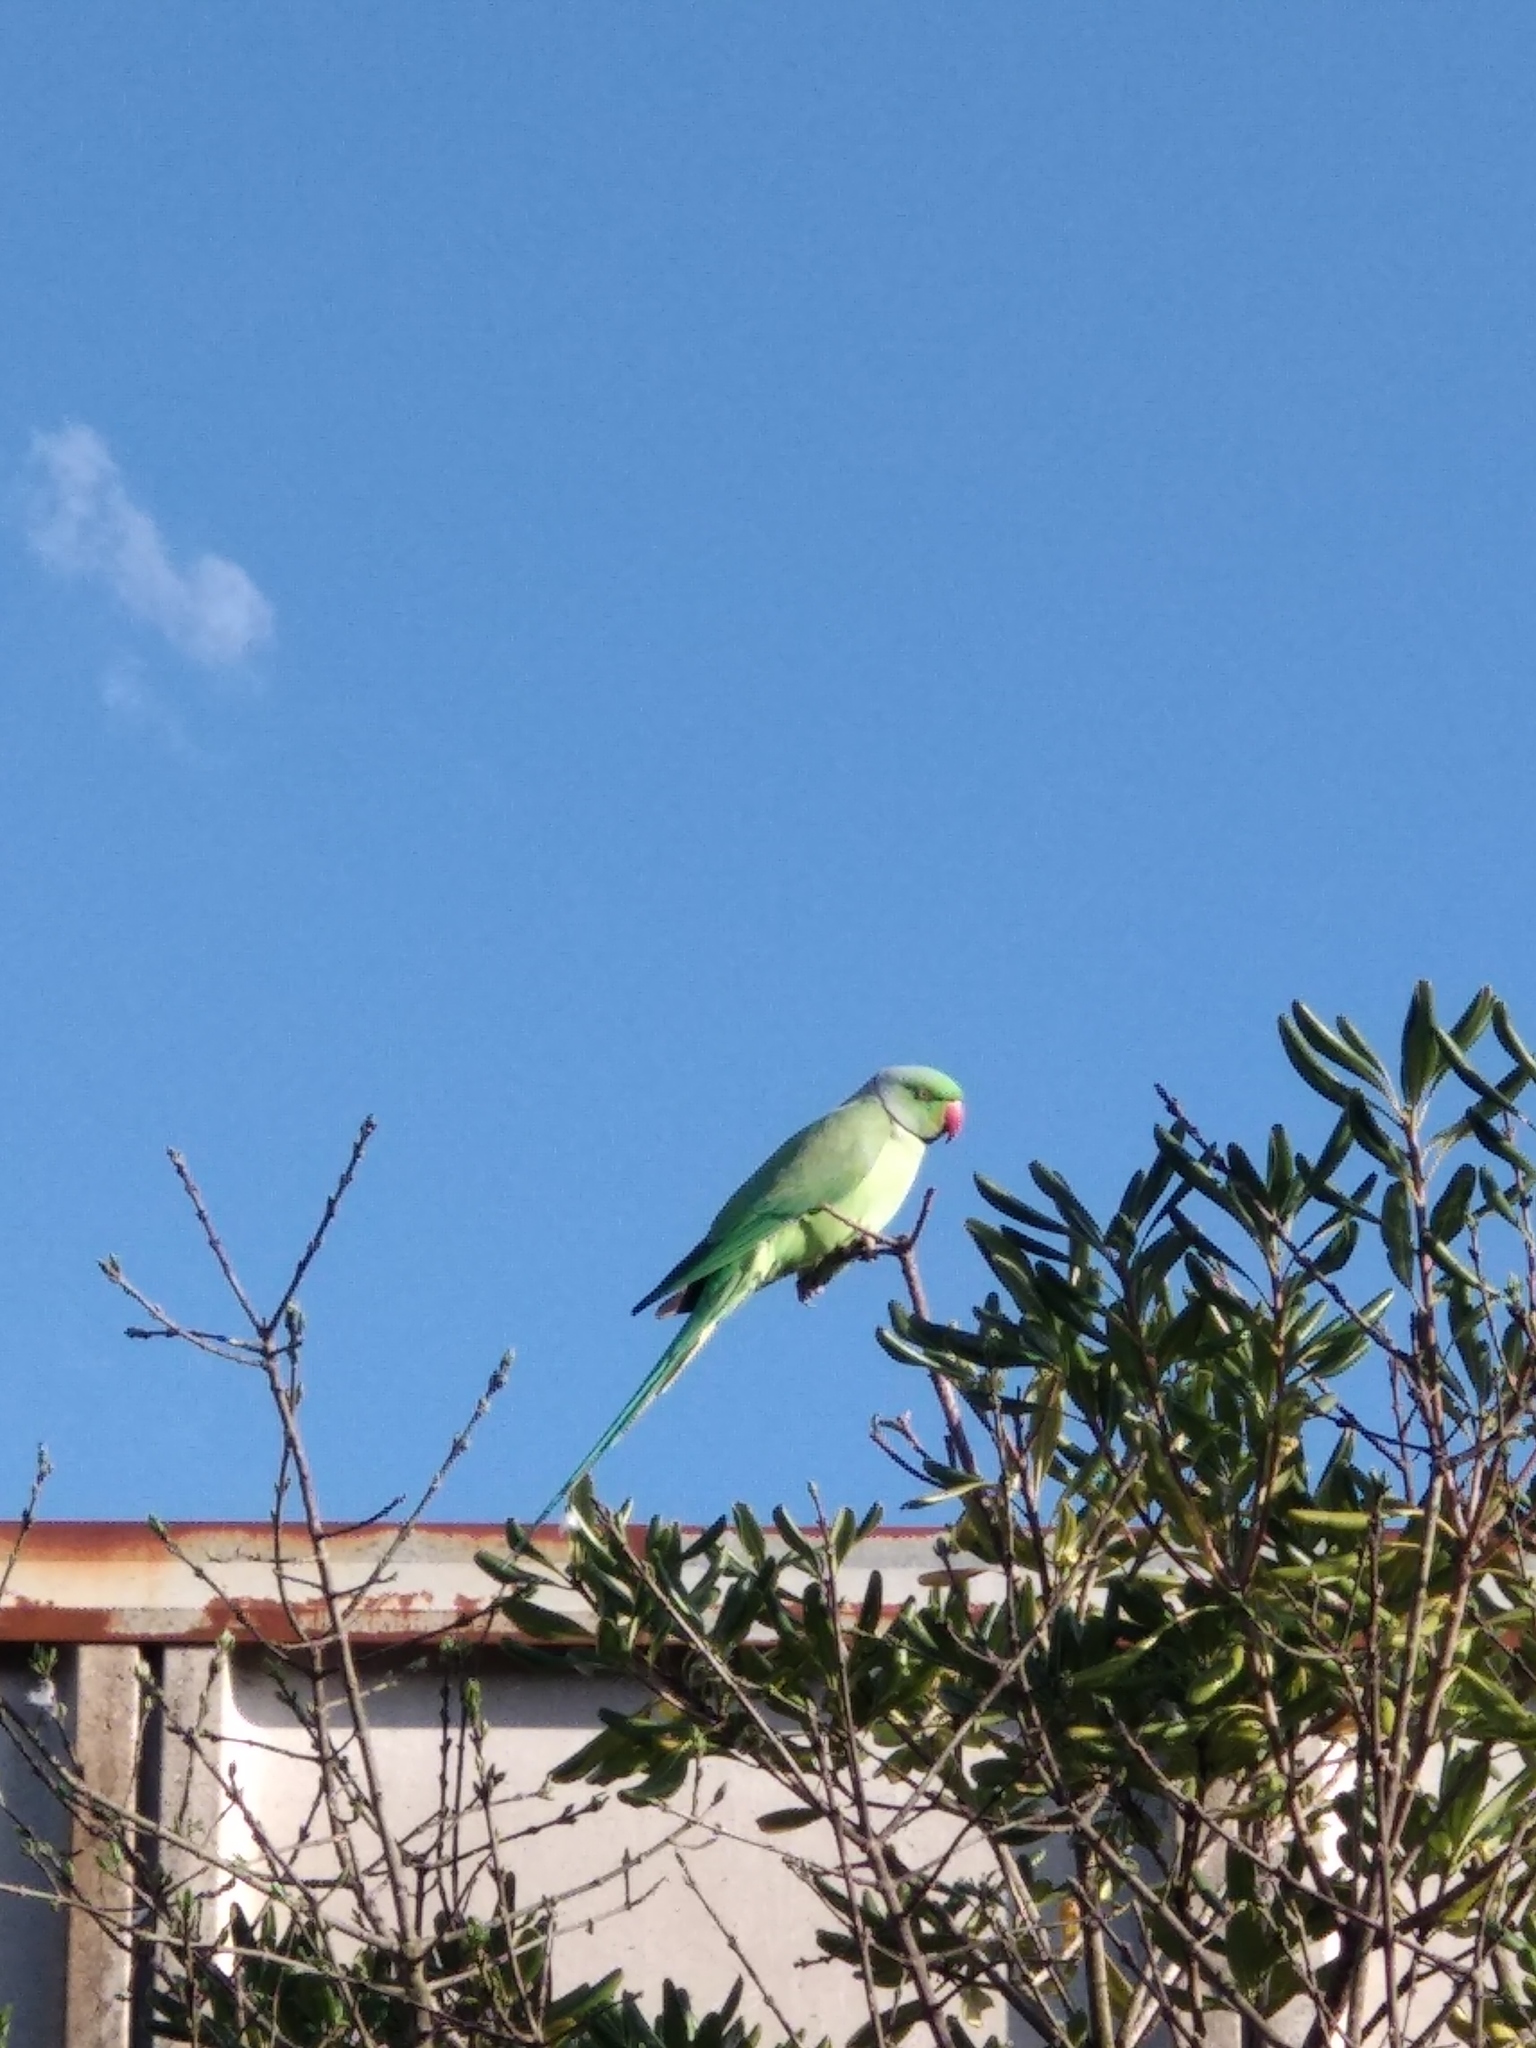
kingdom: Animalia
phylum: Chordata
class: Aves
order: Psittaciformes
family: Psittacidae
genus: Psittacula
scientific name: Psittacula krameri
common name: Rose-ringed parakeet
